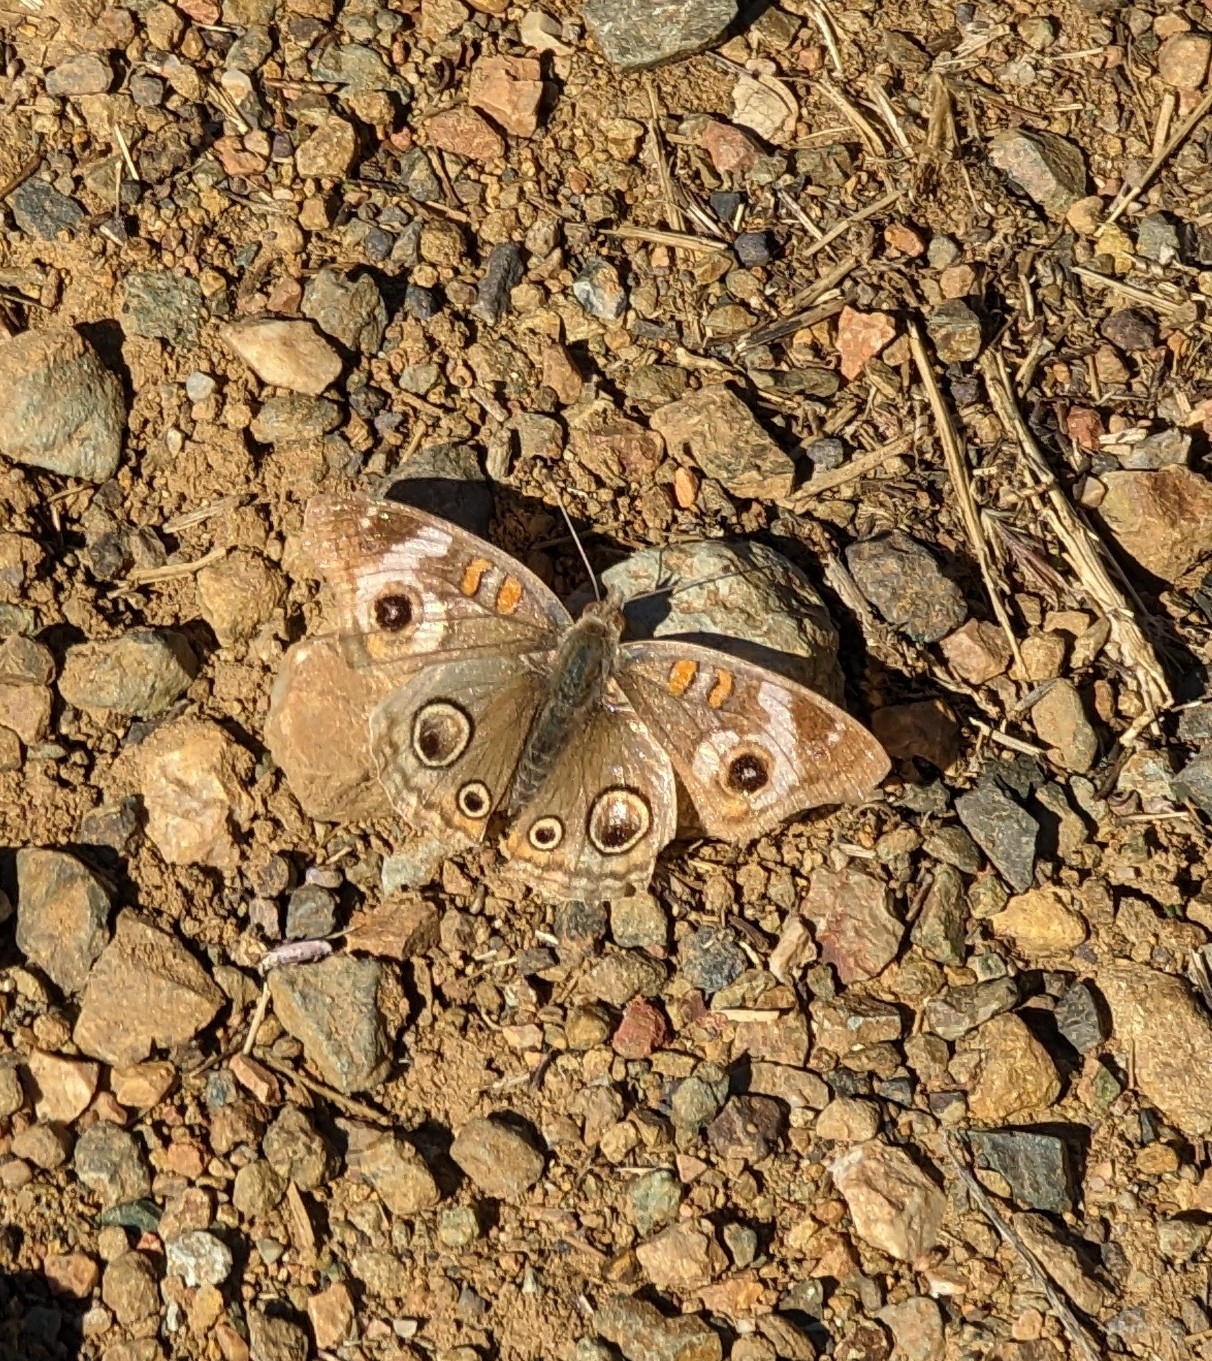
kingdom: Animalia
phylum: Arthropoda
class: Insecta
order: Lepidoptera
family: Nymphalidae
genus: Junonia
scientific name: Junonia grisea
